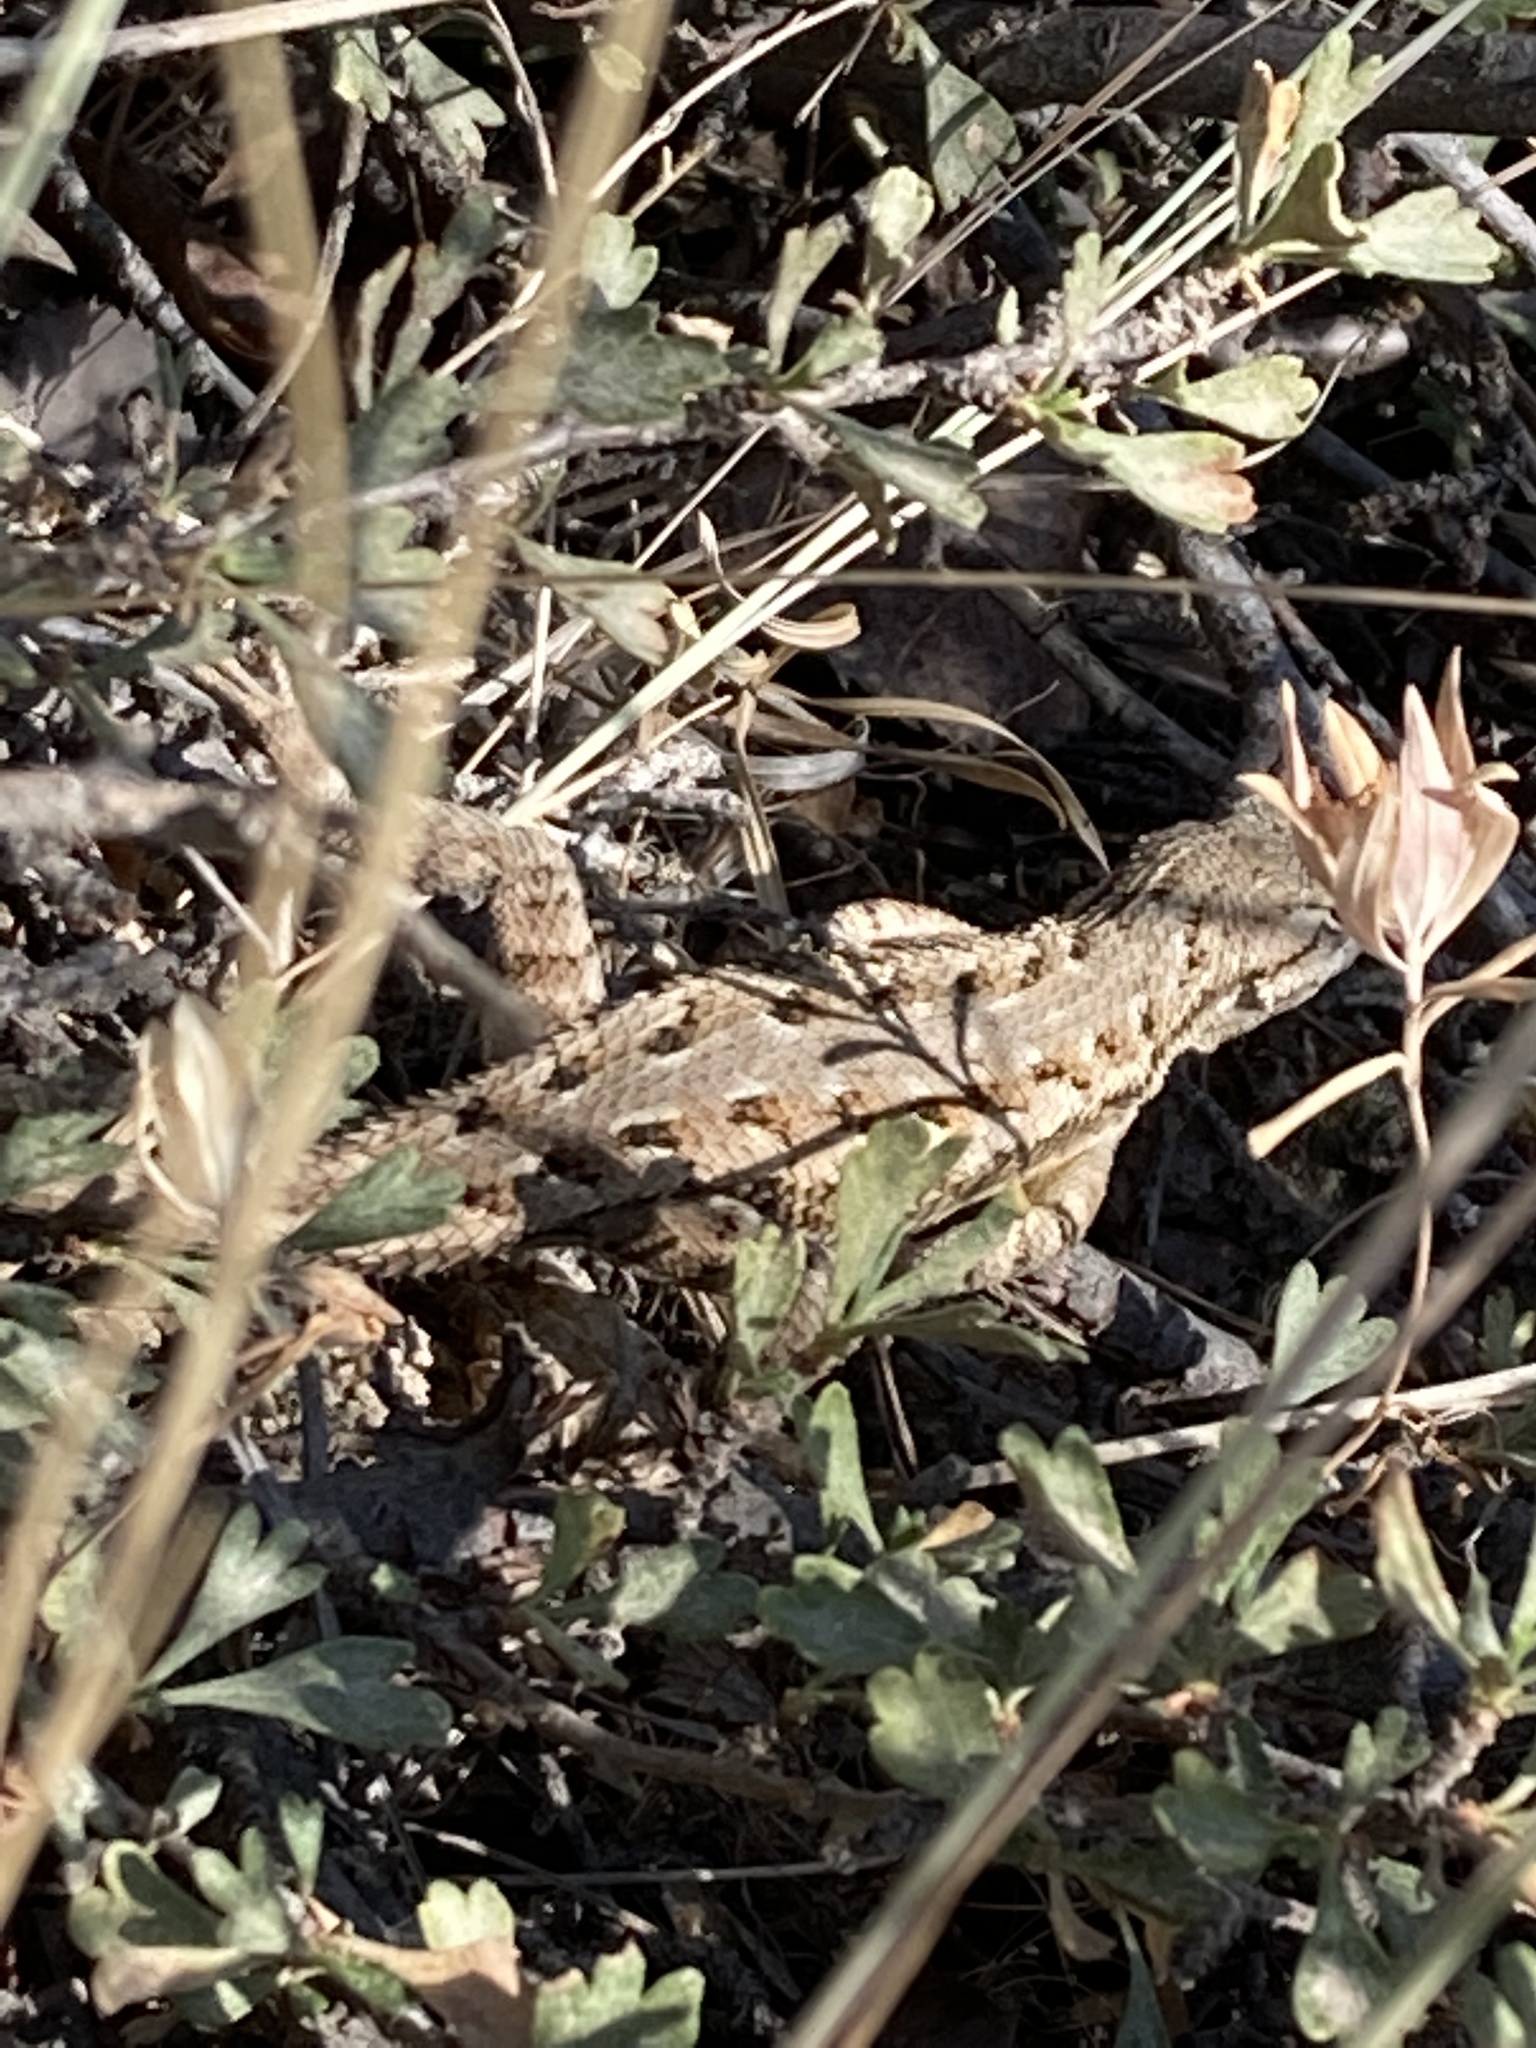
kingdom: Animalia
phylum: Chordata
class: Squamata
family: Phrynosomatidae
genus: Sceloporus
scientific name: Sceloporus occidentalis
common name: Western fence lizard
